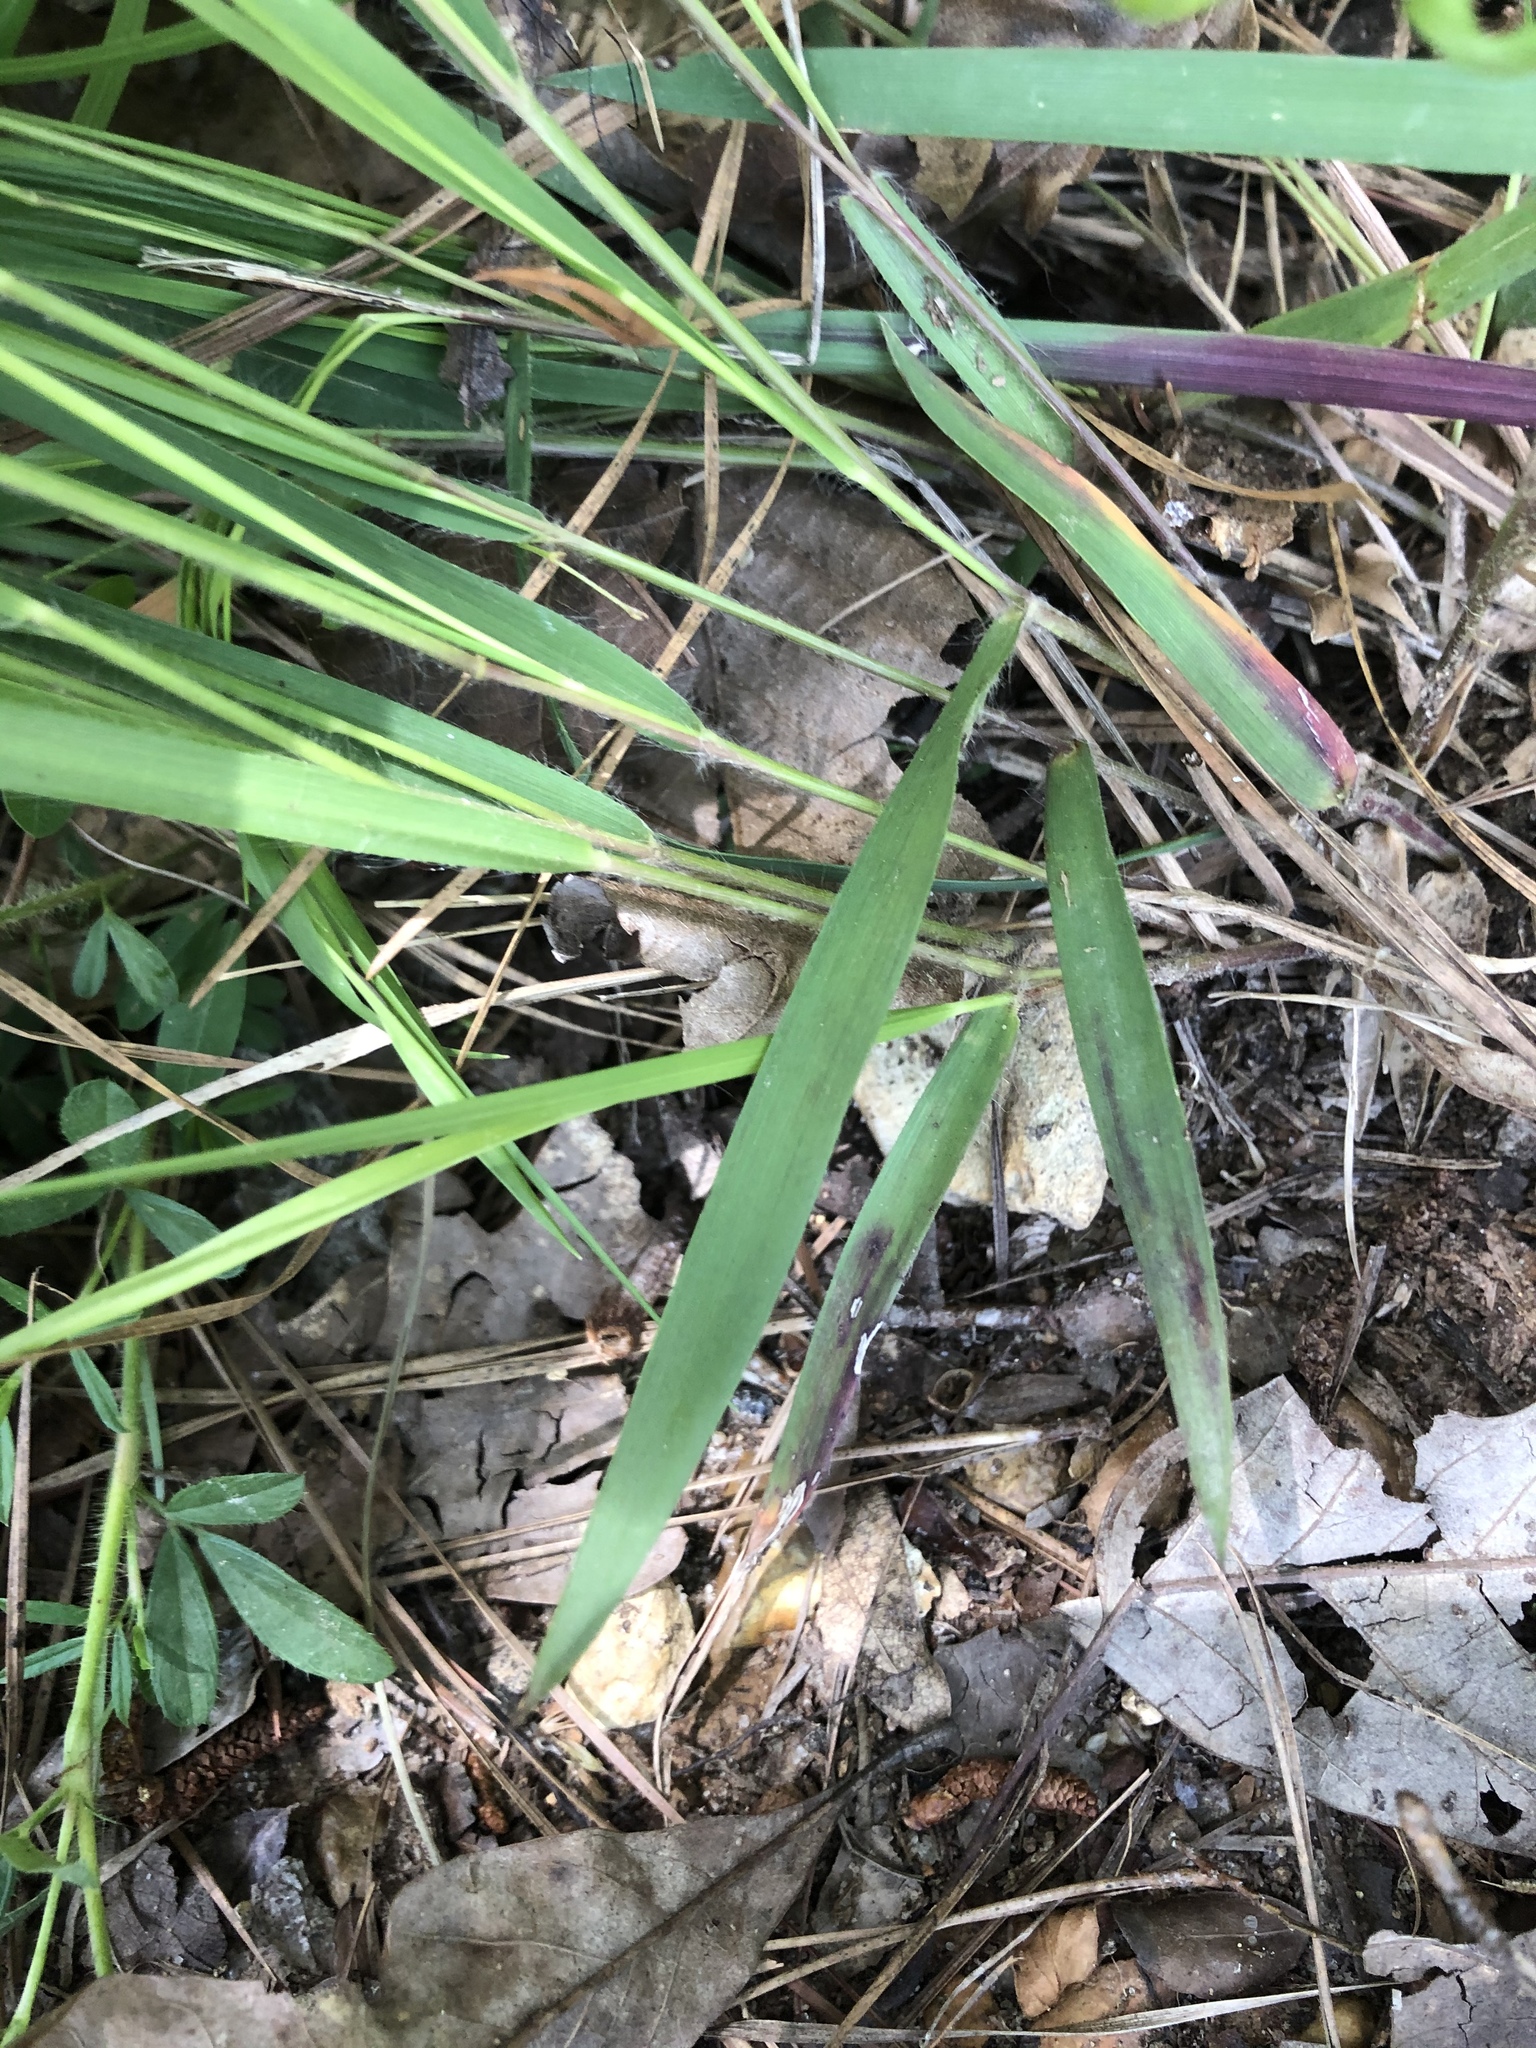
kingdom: Plantae
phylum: Tracheophyta
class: Liliopsida
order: Poales
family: Poaceae
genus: Dichanthelium
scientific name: Dichanthelium angustifolium
